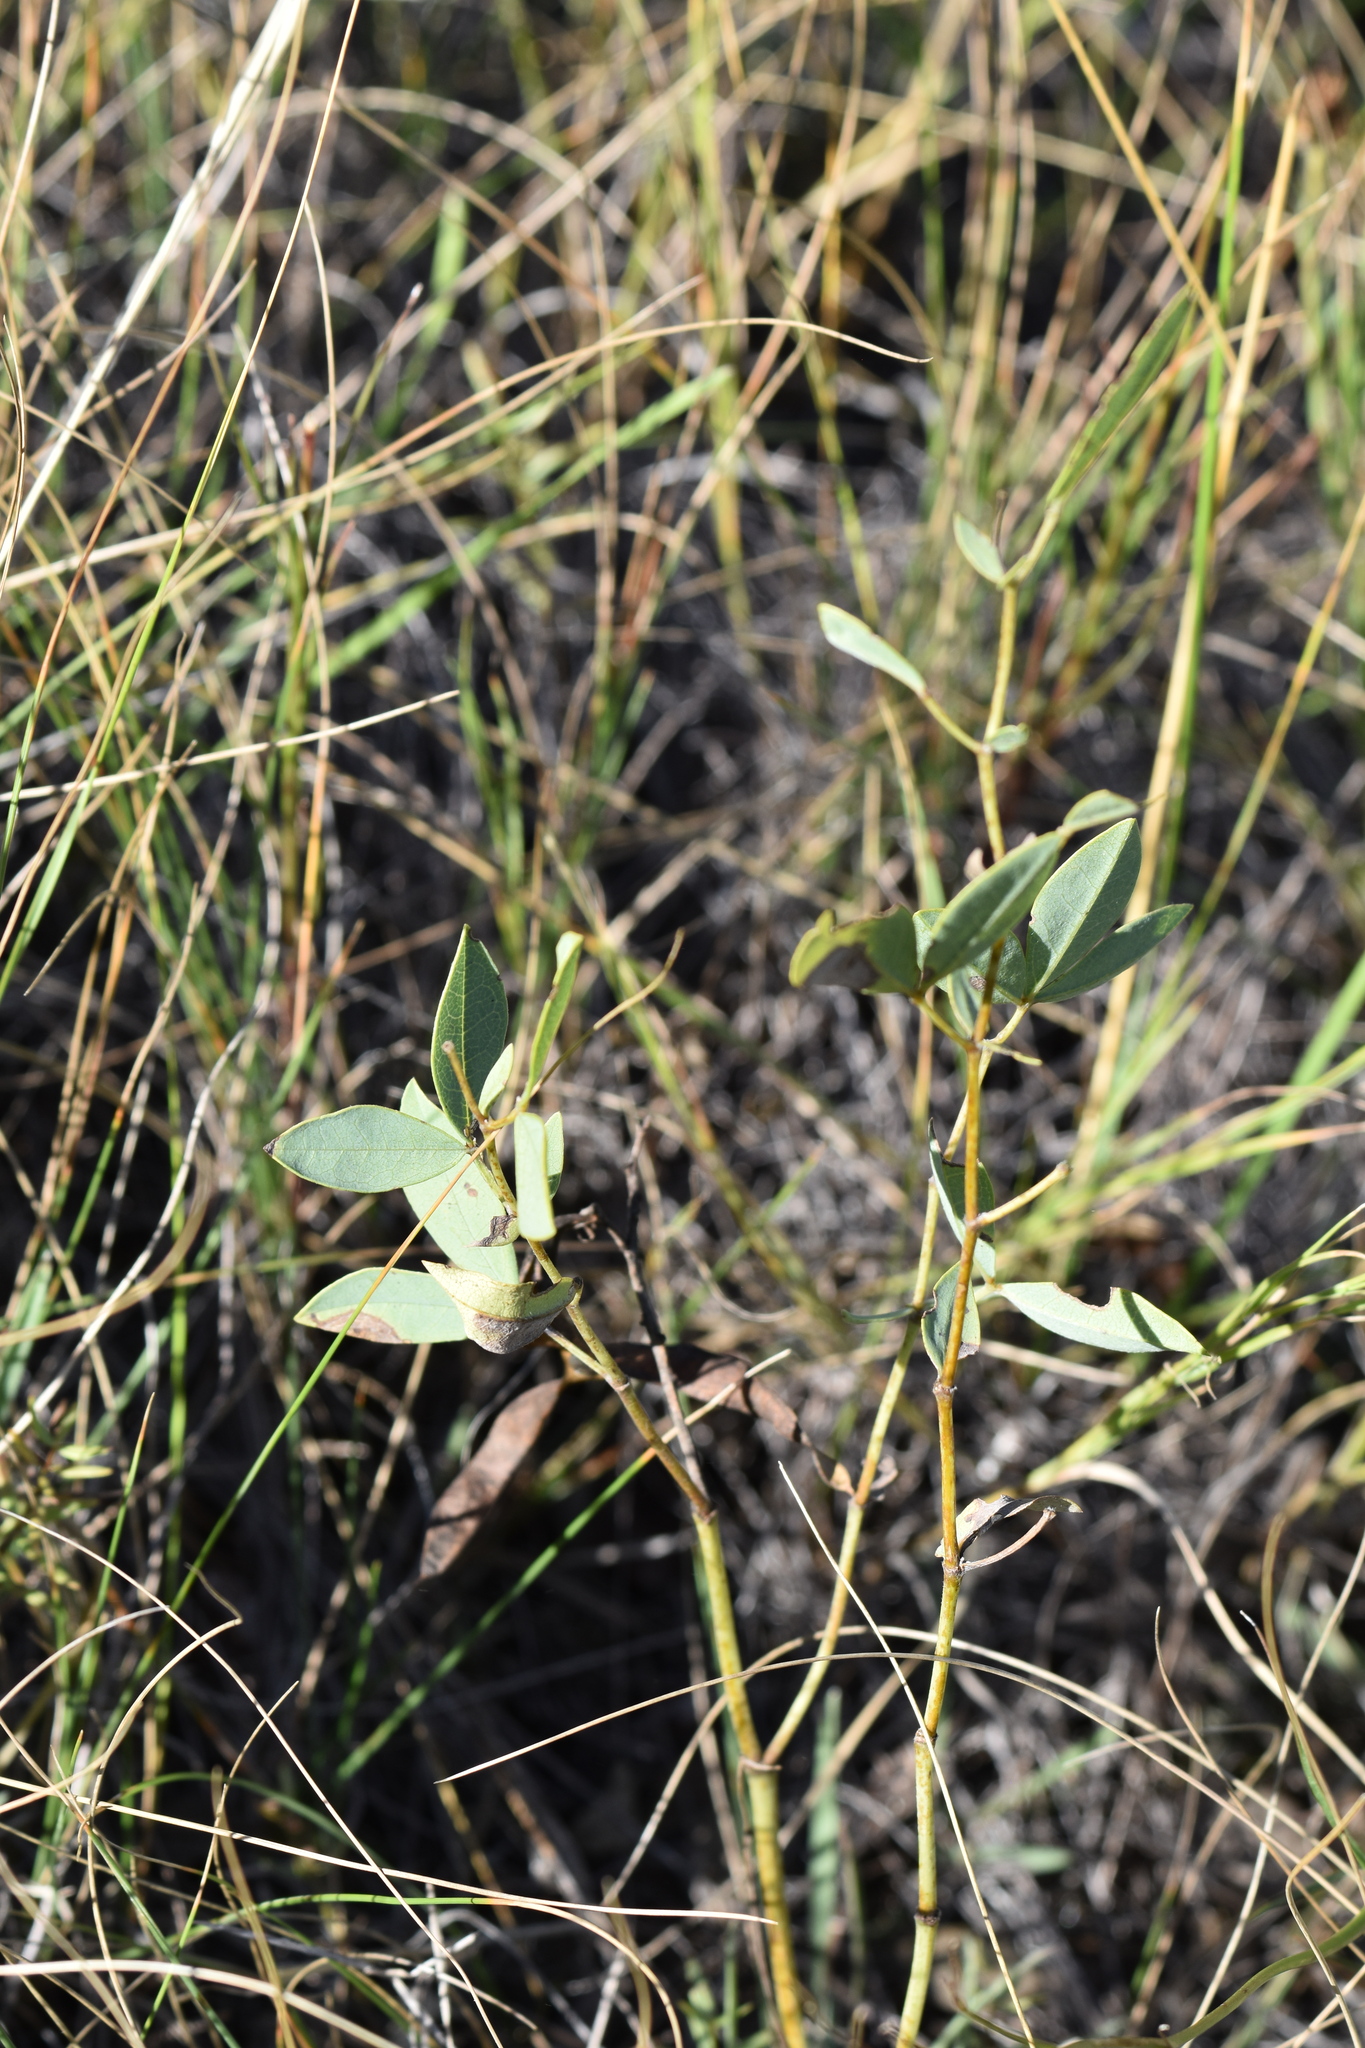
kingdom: Plantae
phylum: Tracheophyta
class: Magnoliopsida
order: Fabales
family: Fabaceae
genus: Thermopsis
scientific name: Thermopsis rhombifolia
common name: Circle-pod-pea
